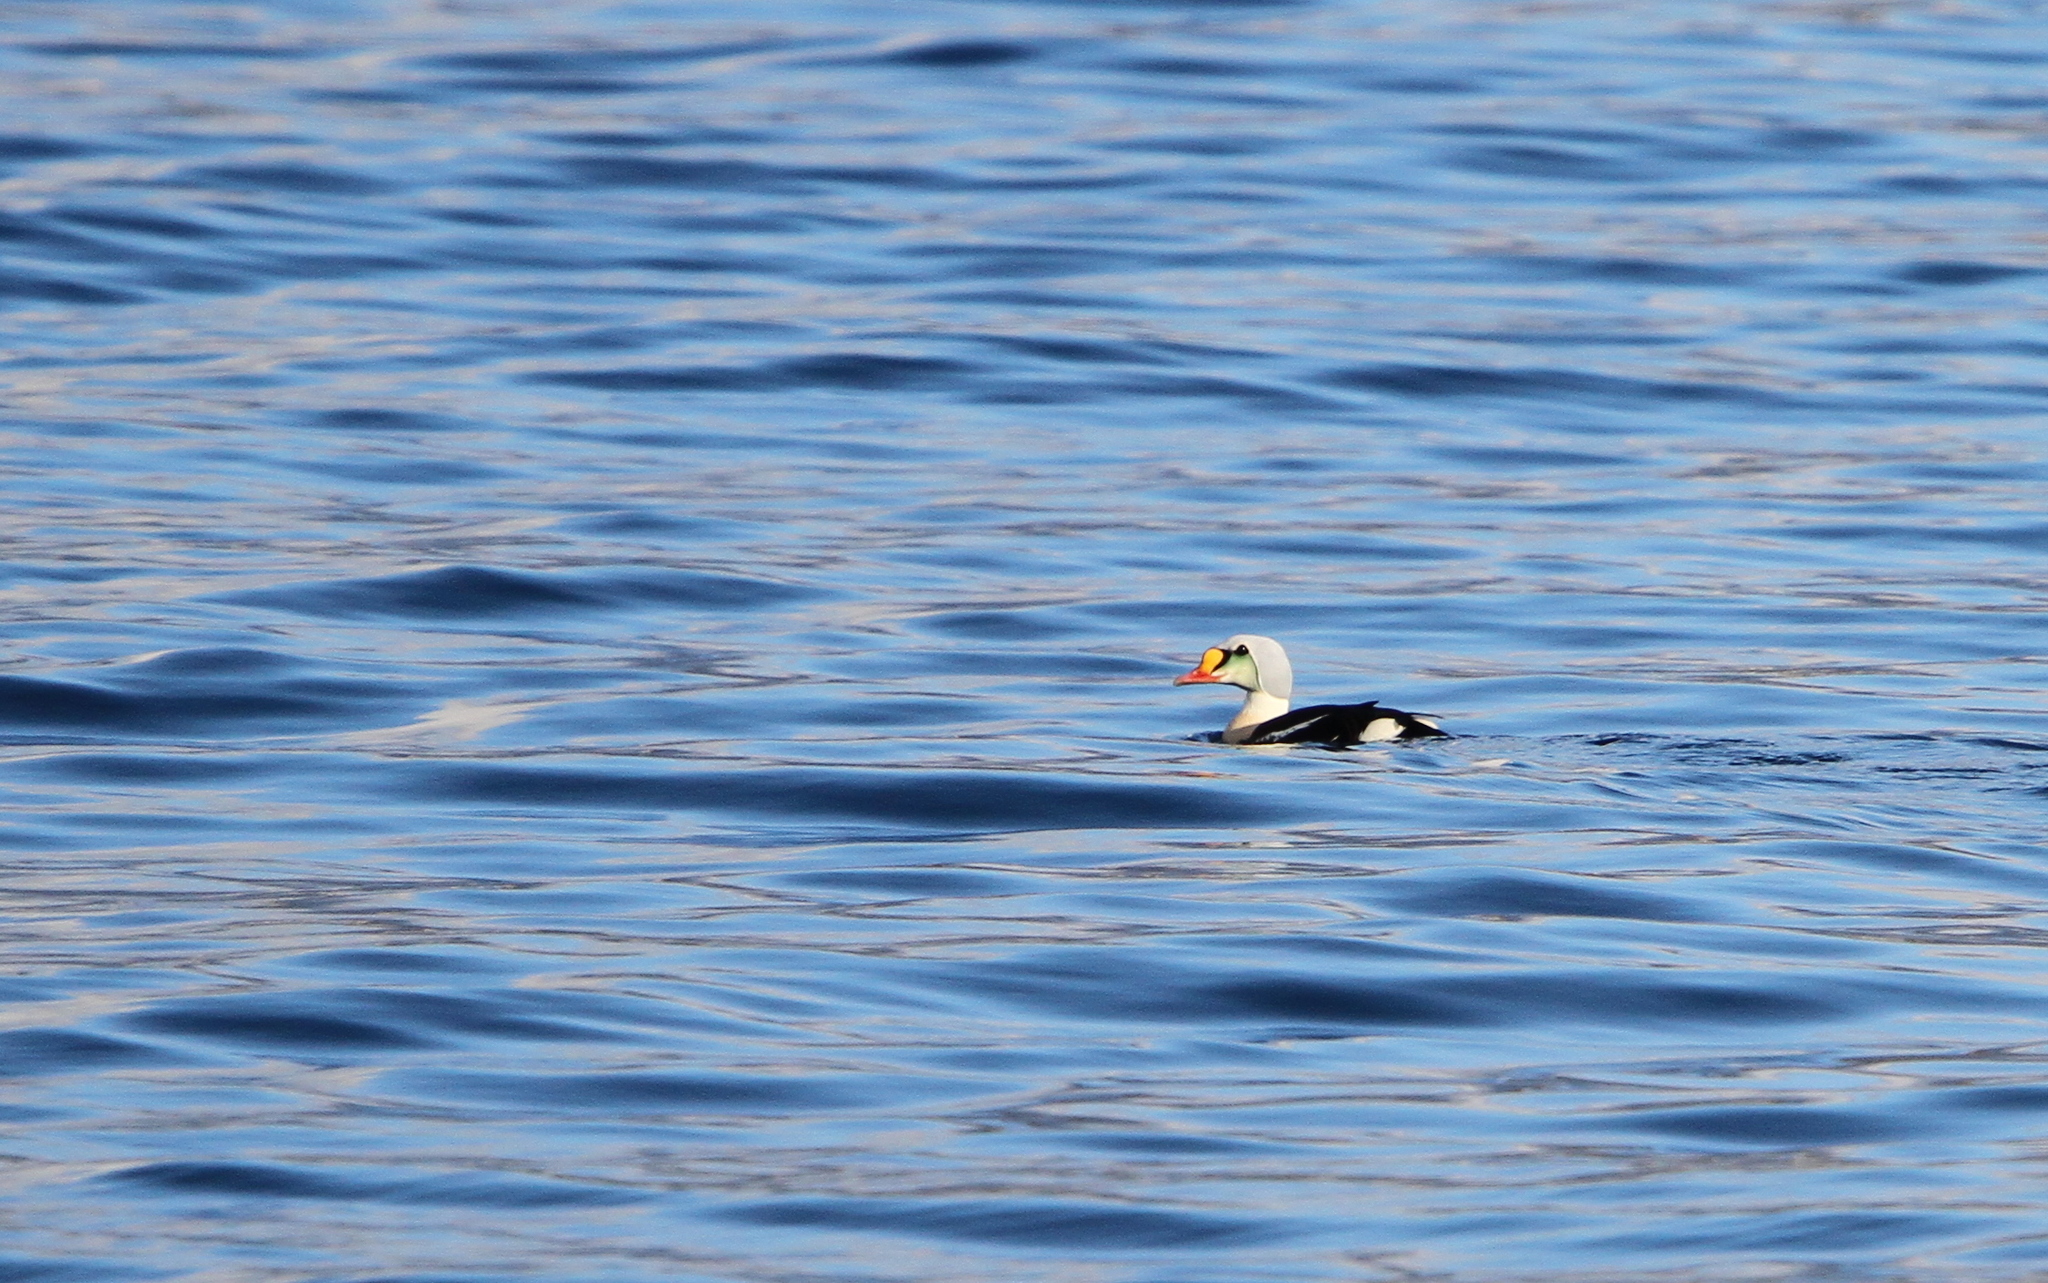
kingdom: Animalia
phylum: Chordata
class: Aves
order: Anseriformes
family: Anatidae
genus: Somateria
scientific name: Somateria spectabilis
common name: King eider
